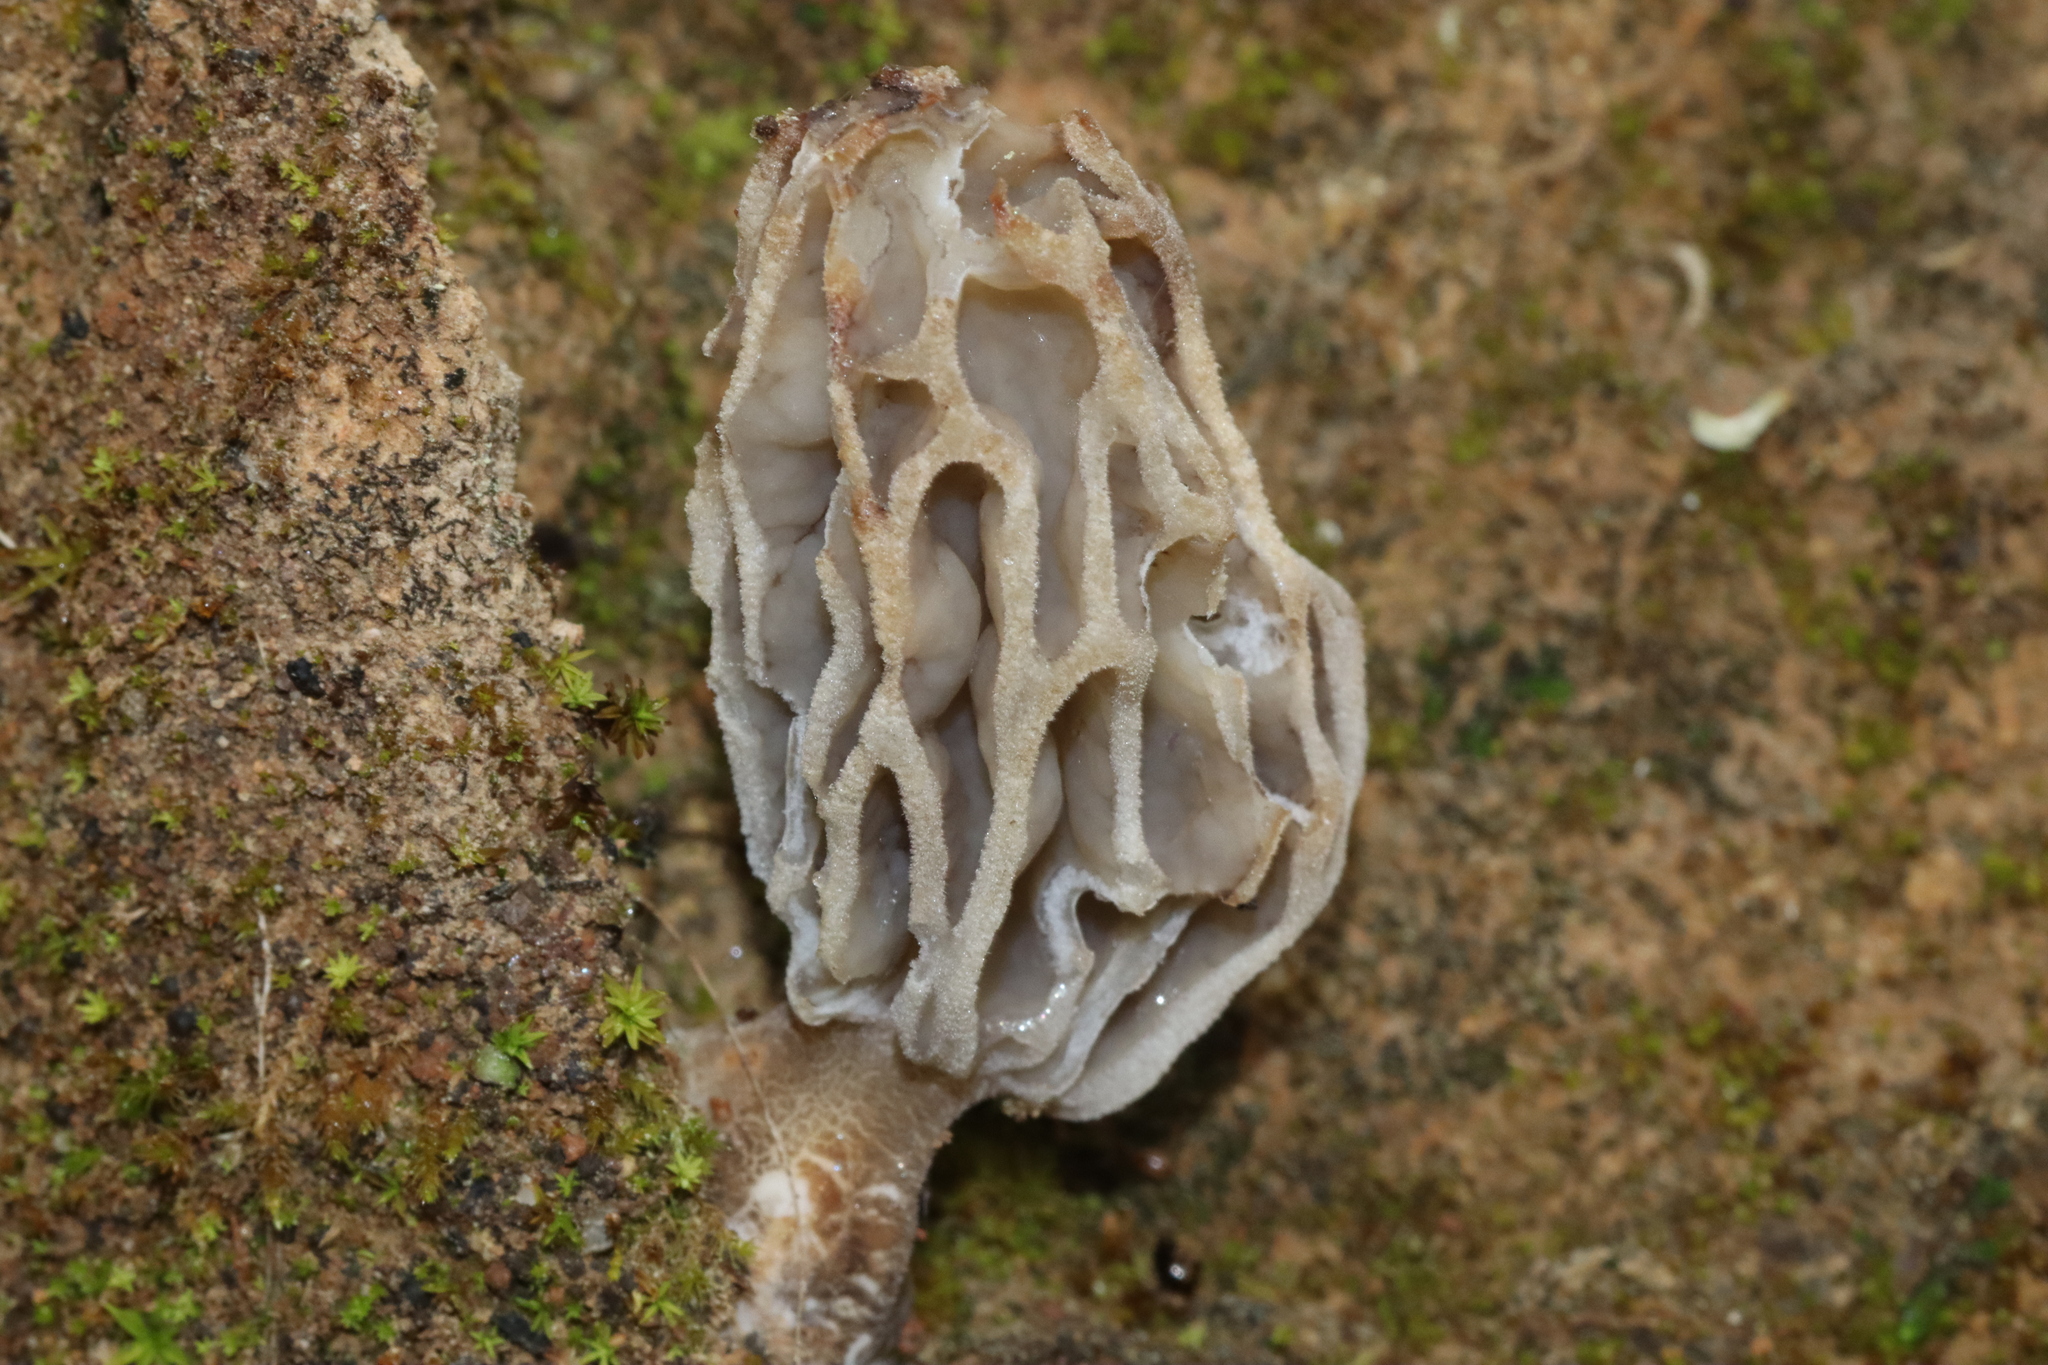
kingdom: Fungi
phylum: Ascomycota
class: Pezizomycetes
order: Pezizales
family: Morchellaceae
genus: Morchella
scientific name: Morchella rufobrunnea
